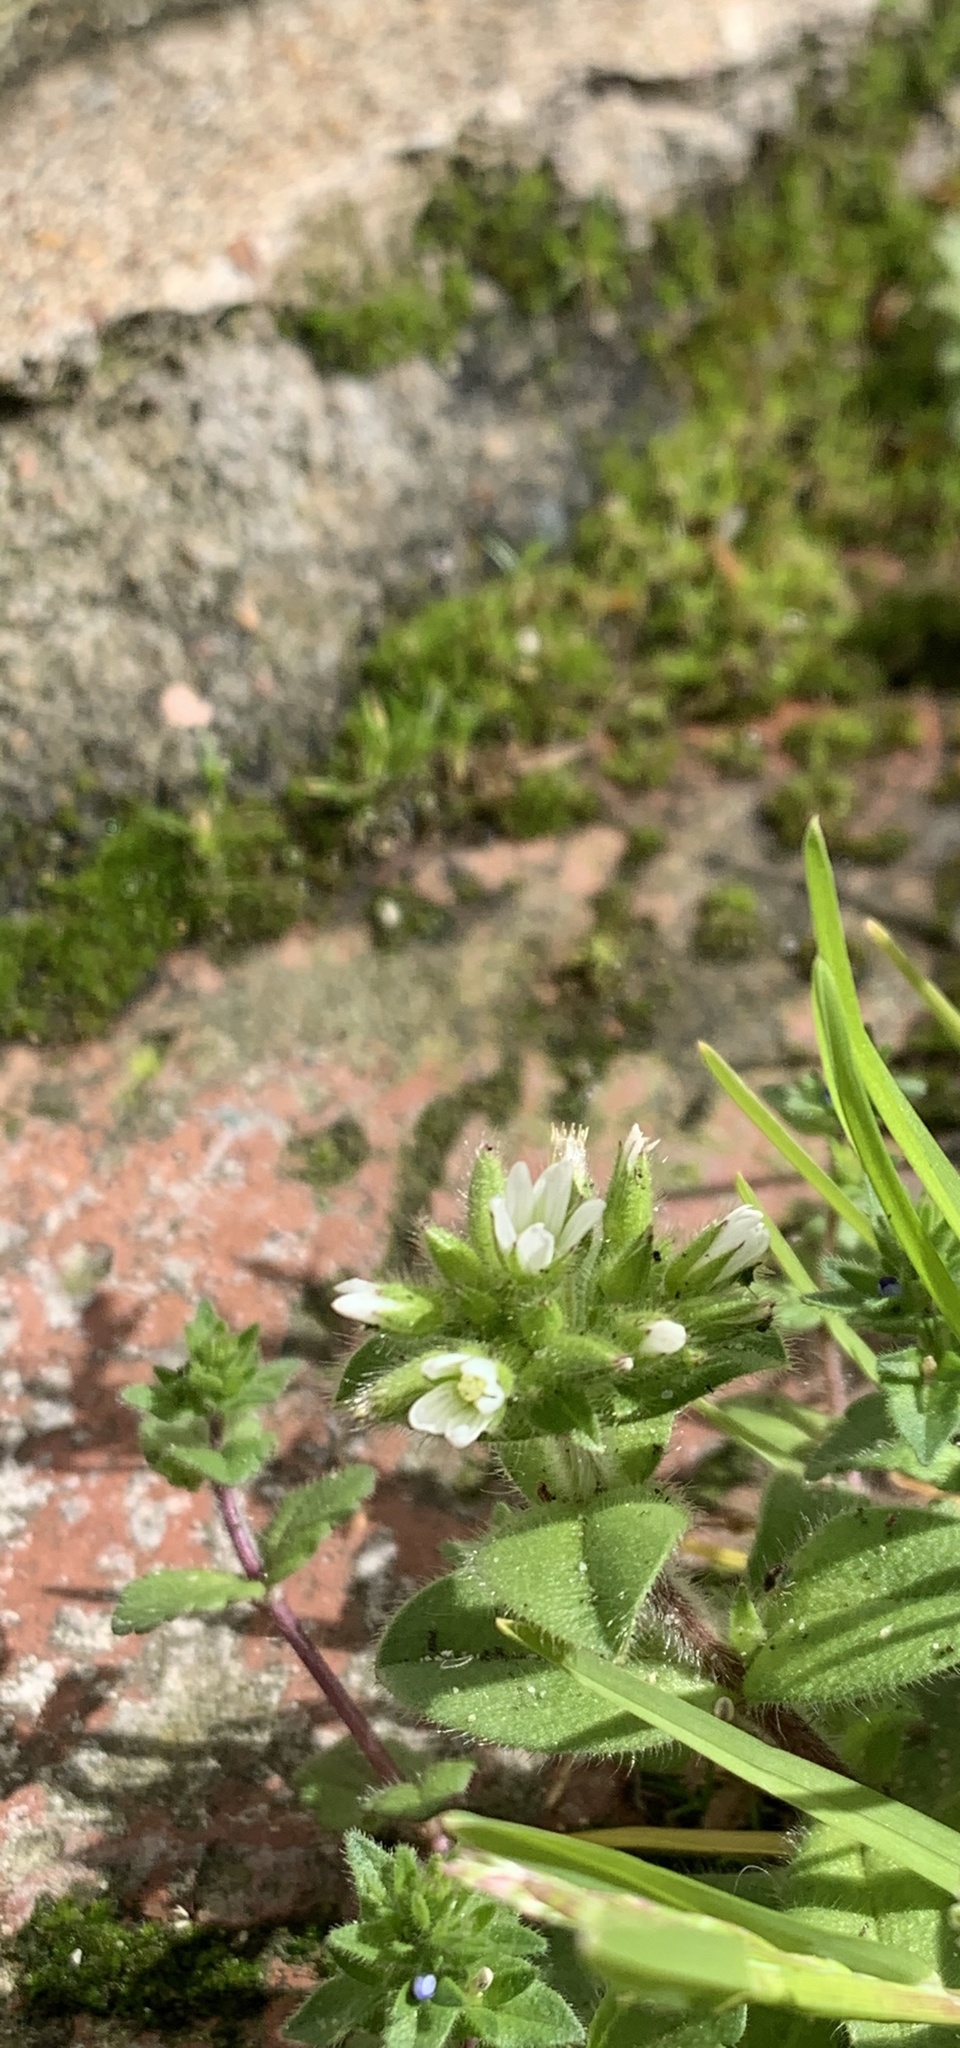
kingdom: Plantae
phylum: Tracheophyta
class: Magnoliopsida
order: Caryophyllales
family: Caryophyllaceae
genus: Cerastium
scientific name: Cerastium glomeratum
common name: Sticky chickweed
